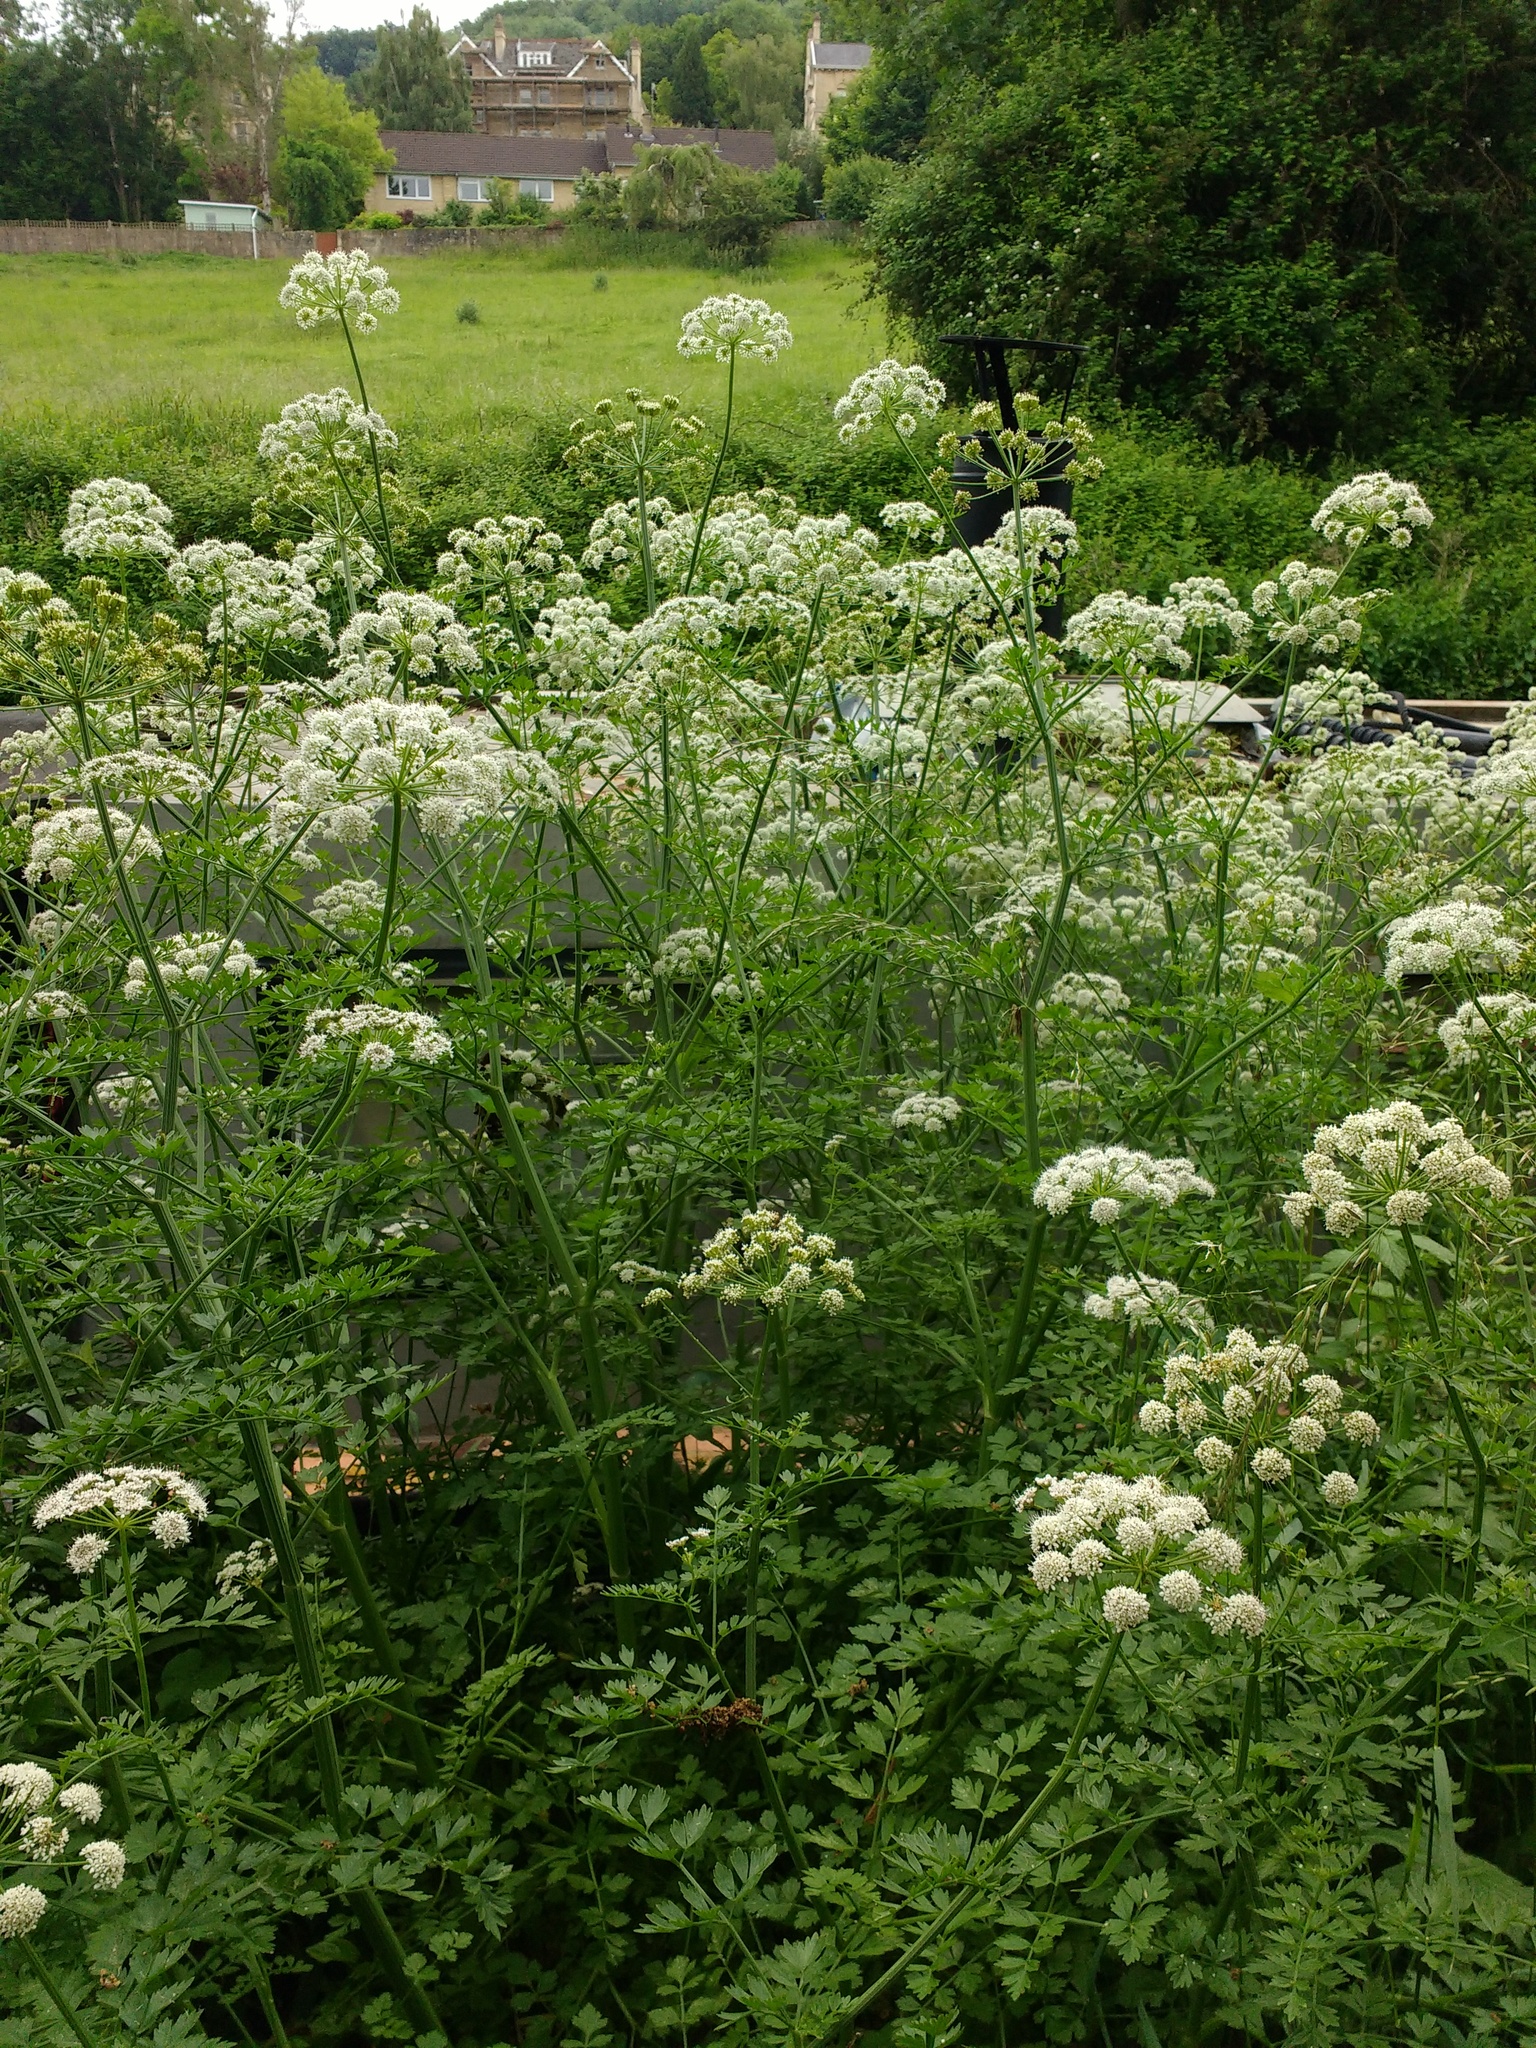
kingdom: Plantae
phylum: Tracheophyta
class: Magnoliopsida
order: Apiales
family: Apiaceae
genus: Oenanthe
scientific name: Oenanthe crocata
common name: Hemlock water-dropwort
